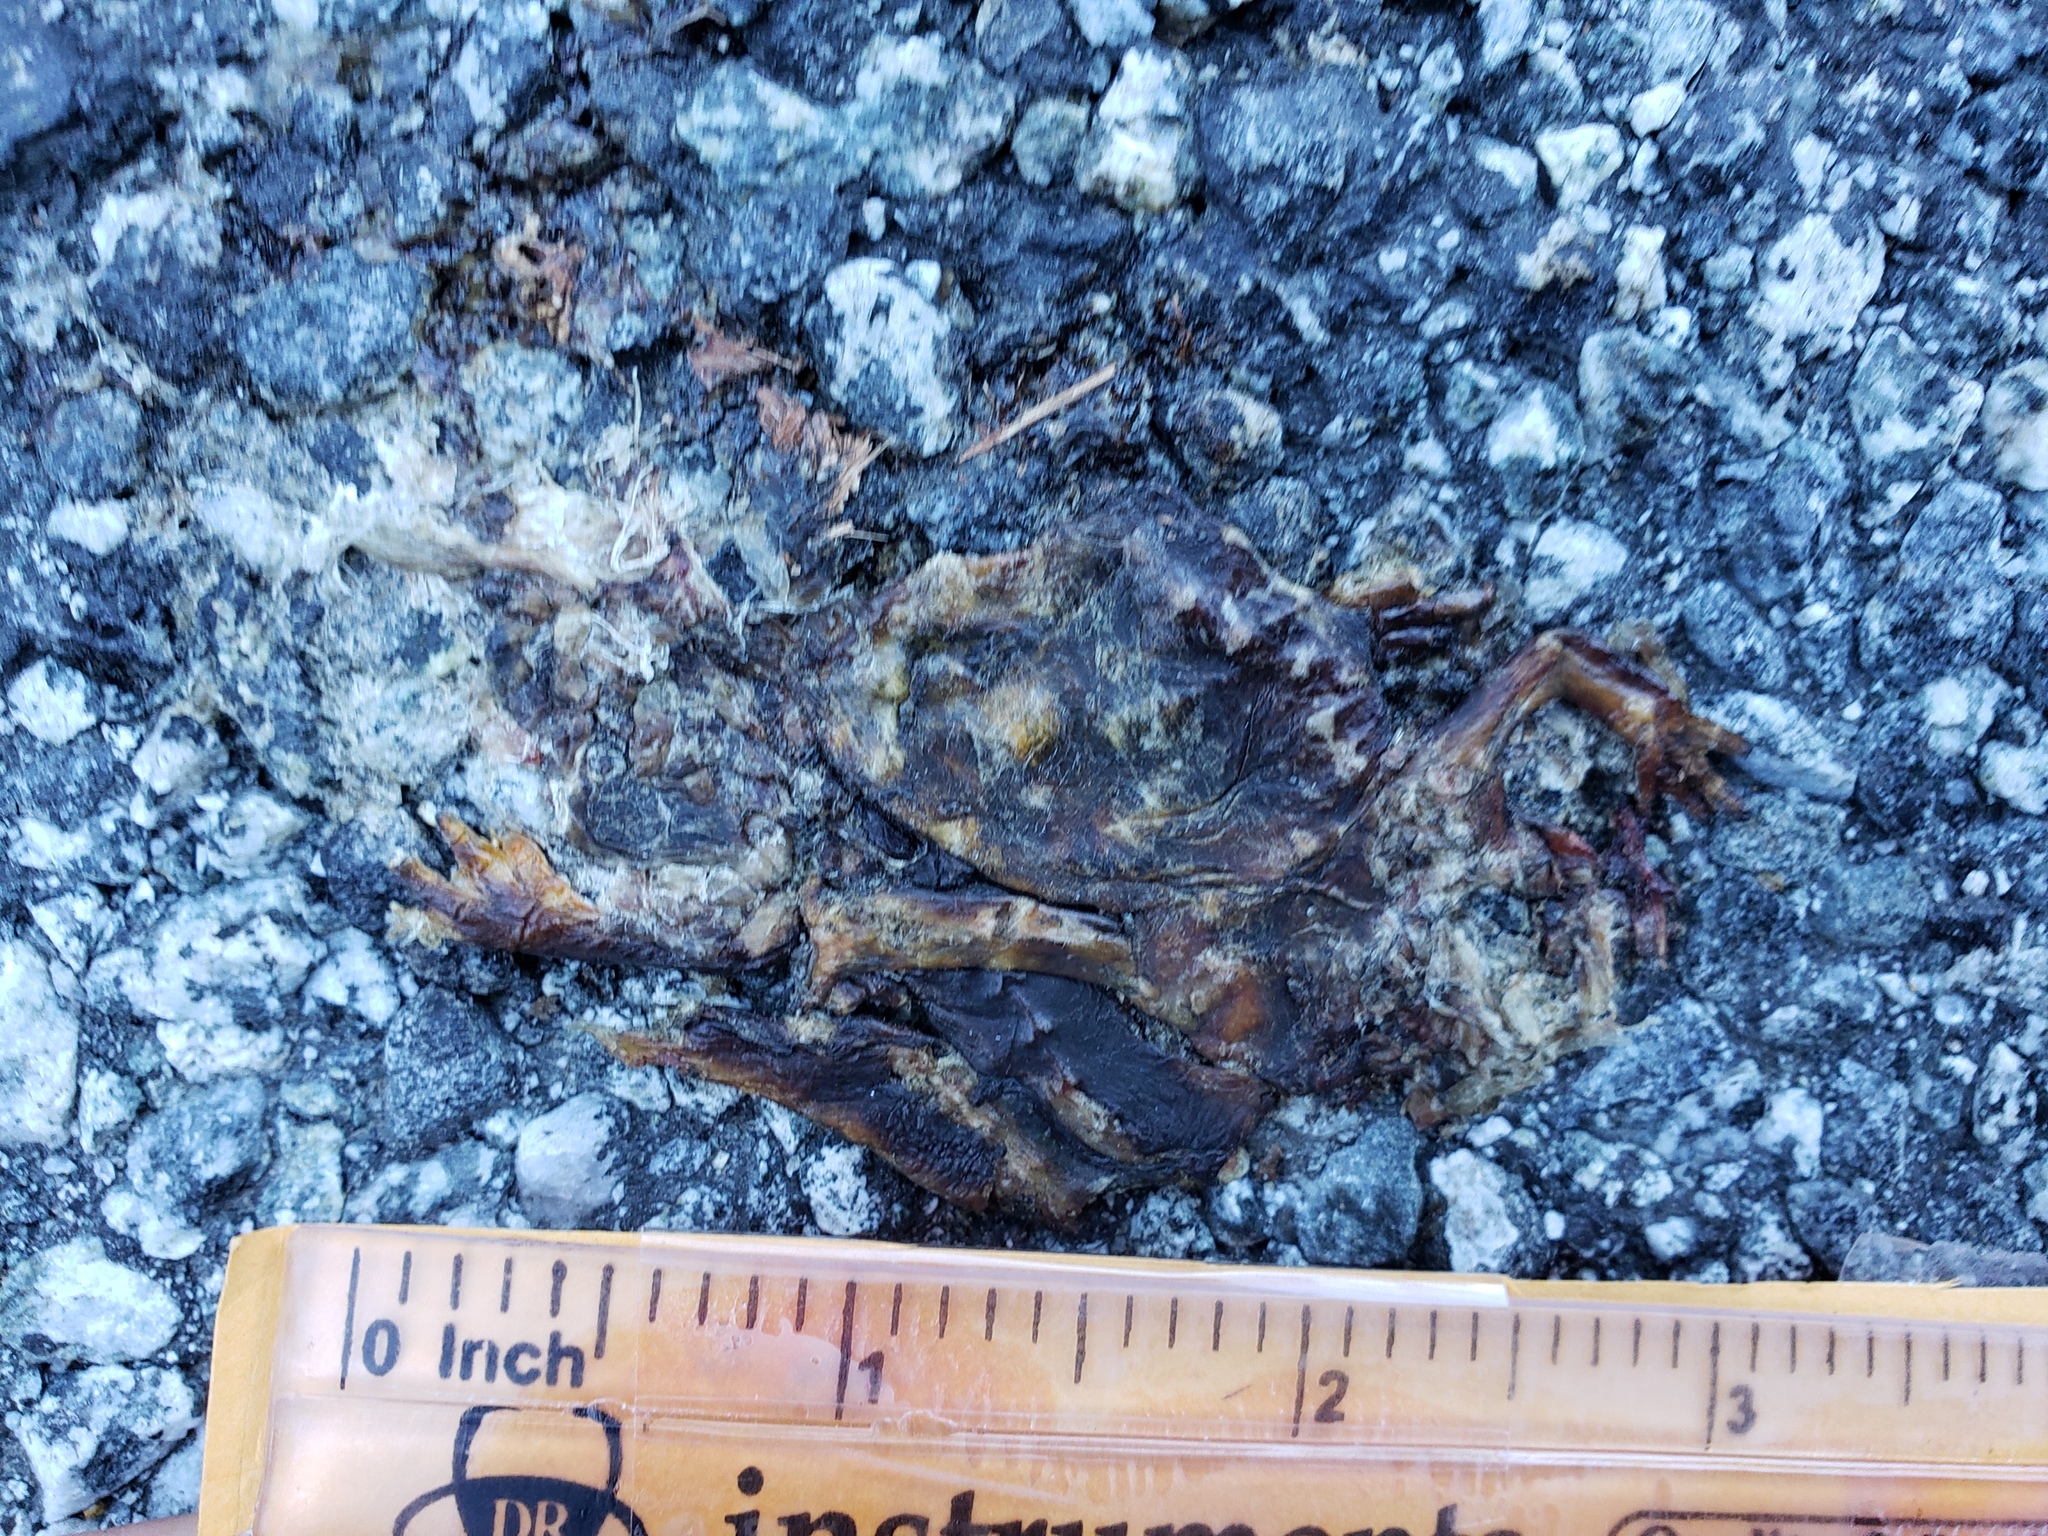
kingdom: Animalia
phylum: Chordata
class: Amphibia
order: Caudata
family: Salamandridae
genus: Taricha
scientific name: Taricha
